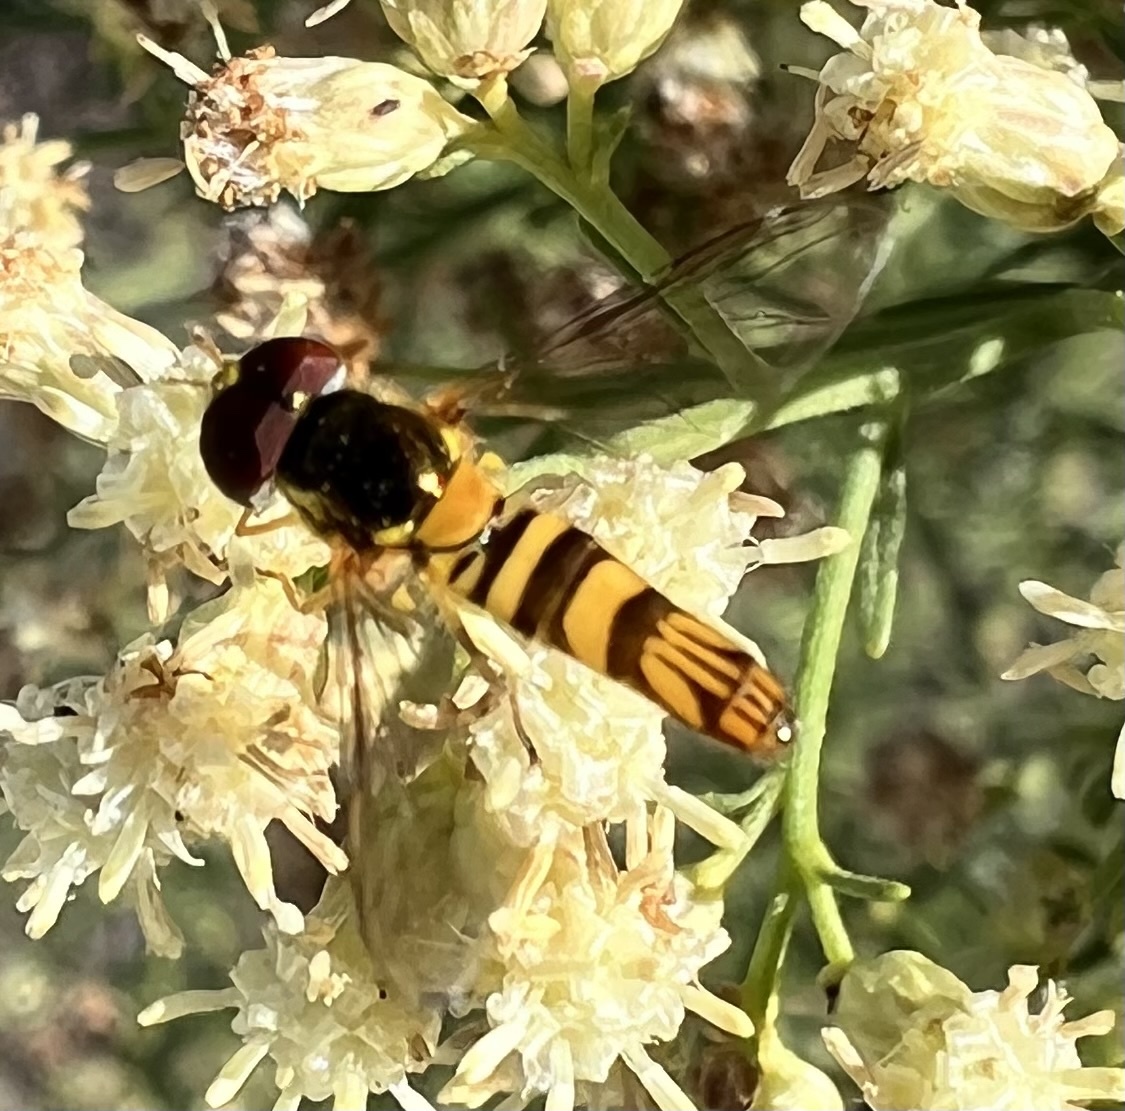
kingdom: Animalia
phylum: Arthropoda
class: Insecta
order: Diptera
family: Syrphidae
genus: Allograpta
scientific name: Allograpta obliqua
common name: Common oblique syrphid
